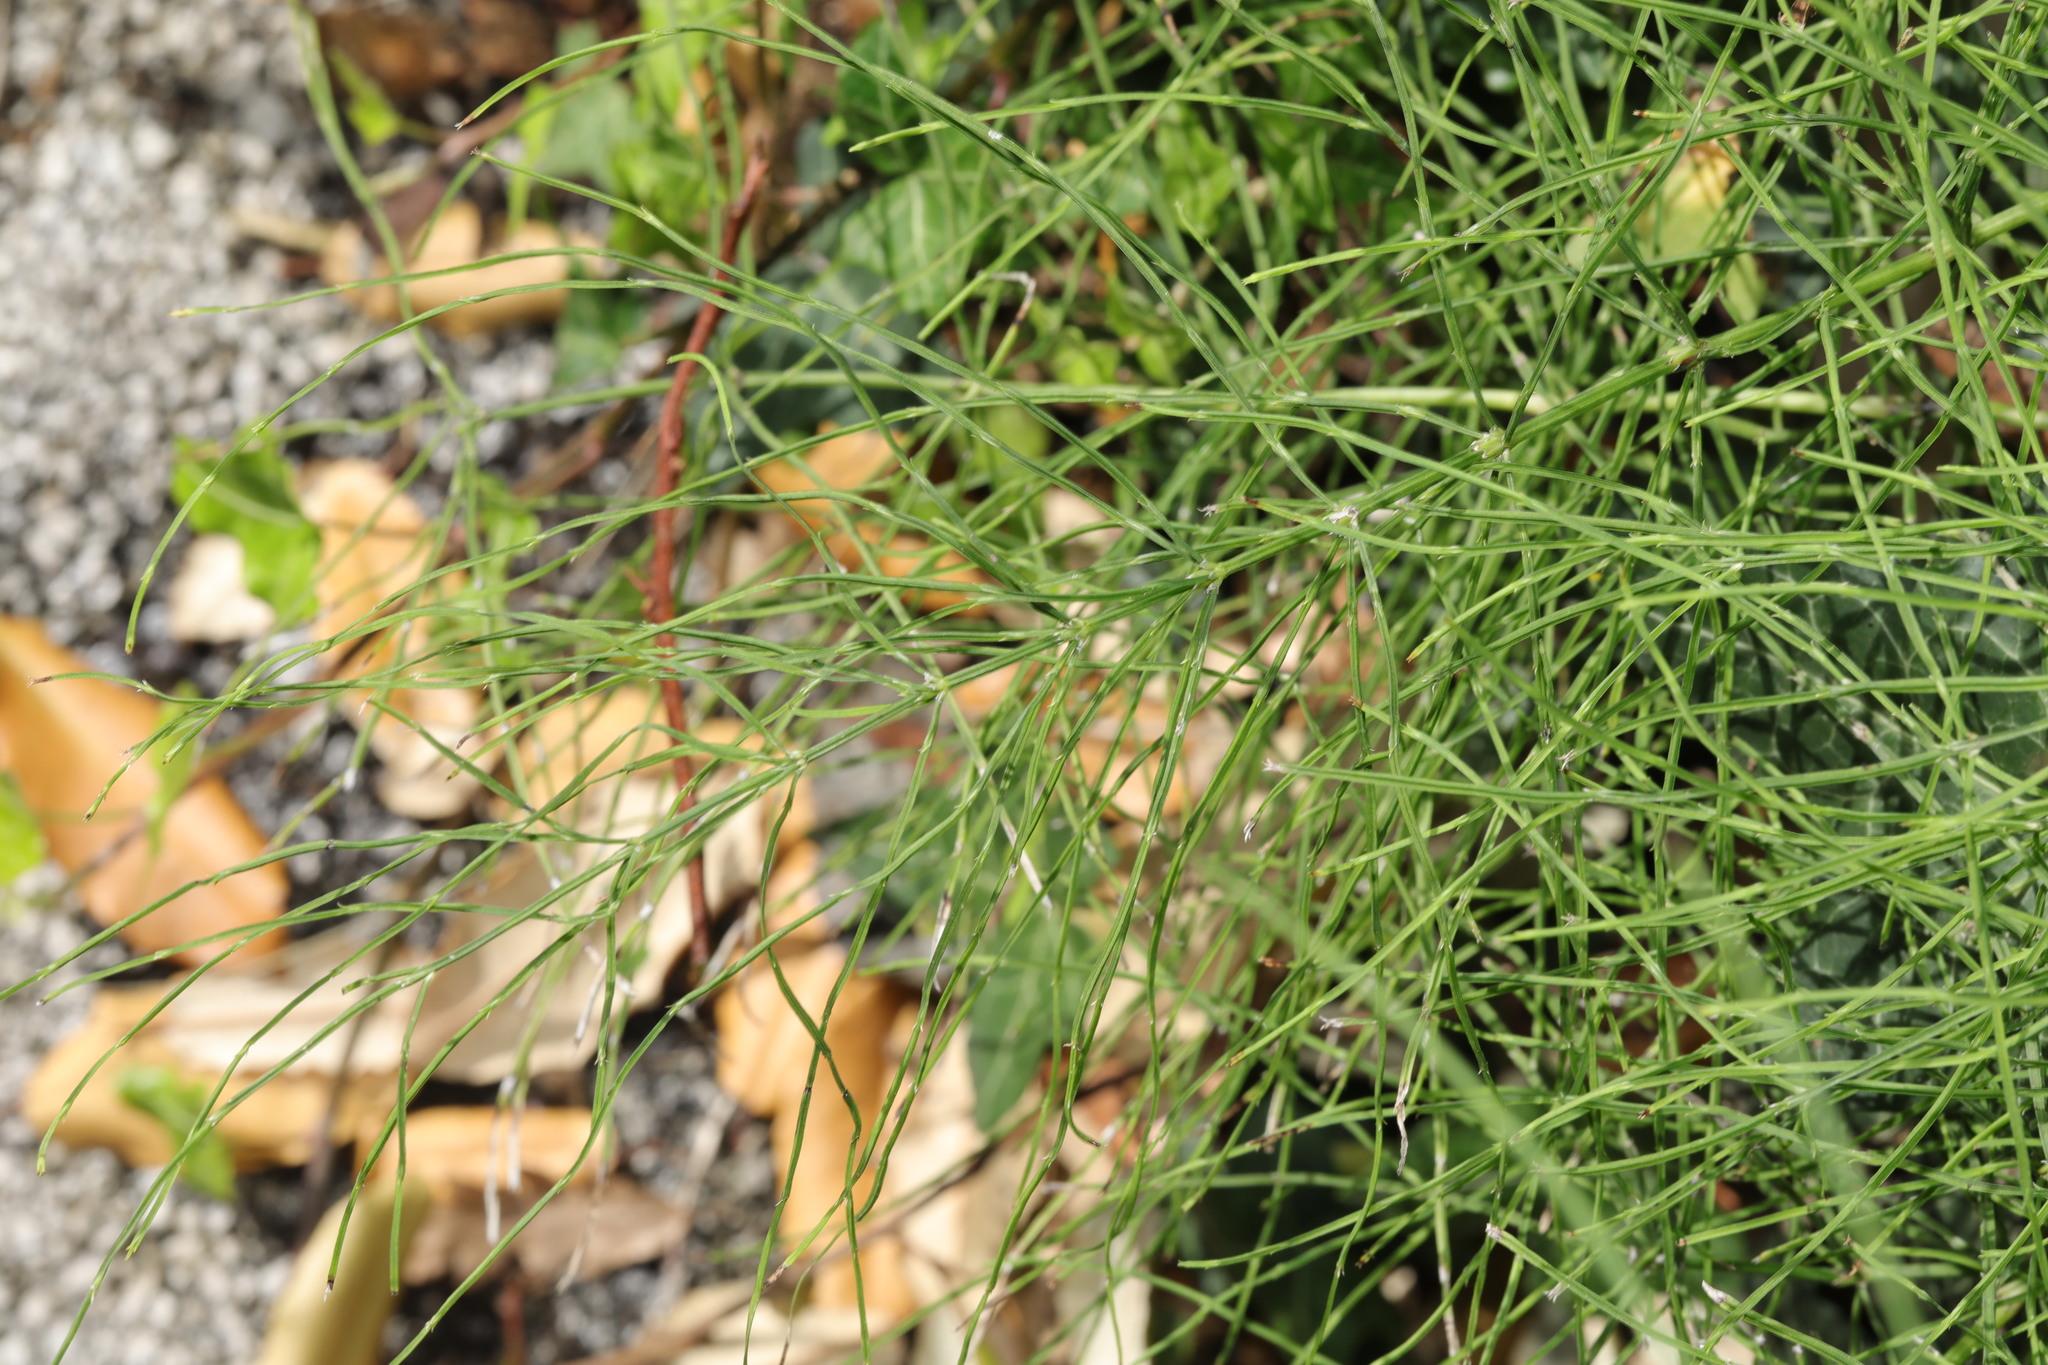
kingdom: Plantae
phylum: Tracheophyta
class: Polypodiopsida
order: Equisetales
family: Equisetaceae
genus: Equisetum
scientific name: Equisetum arvense
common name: Field horsetail
